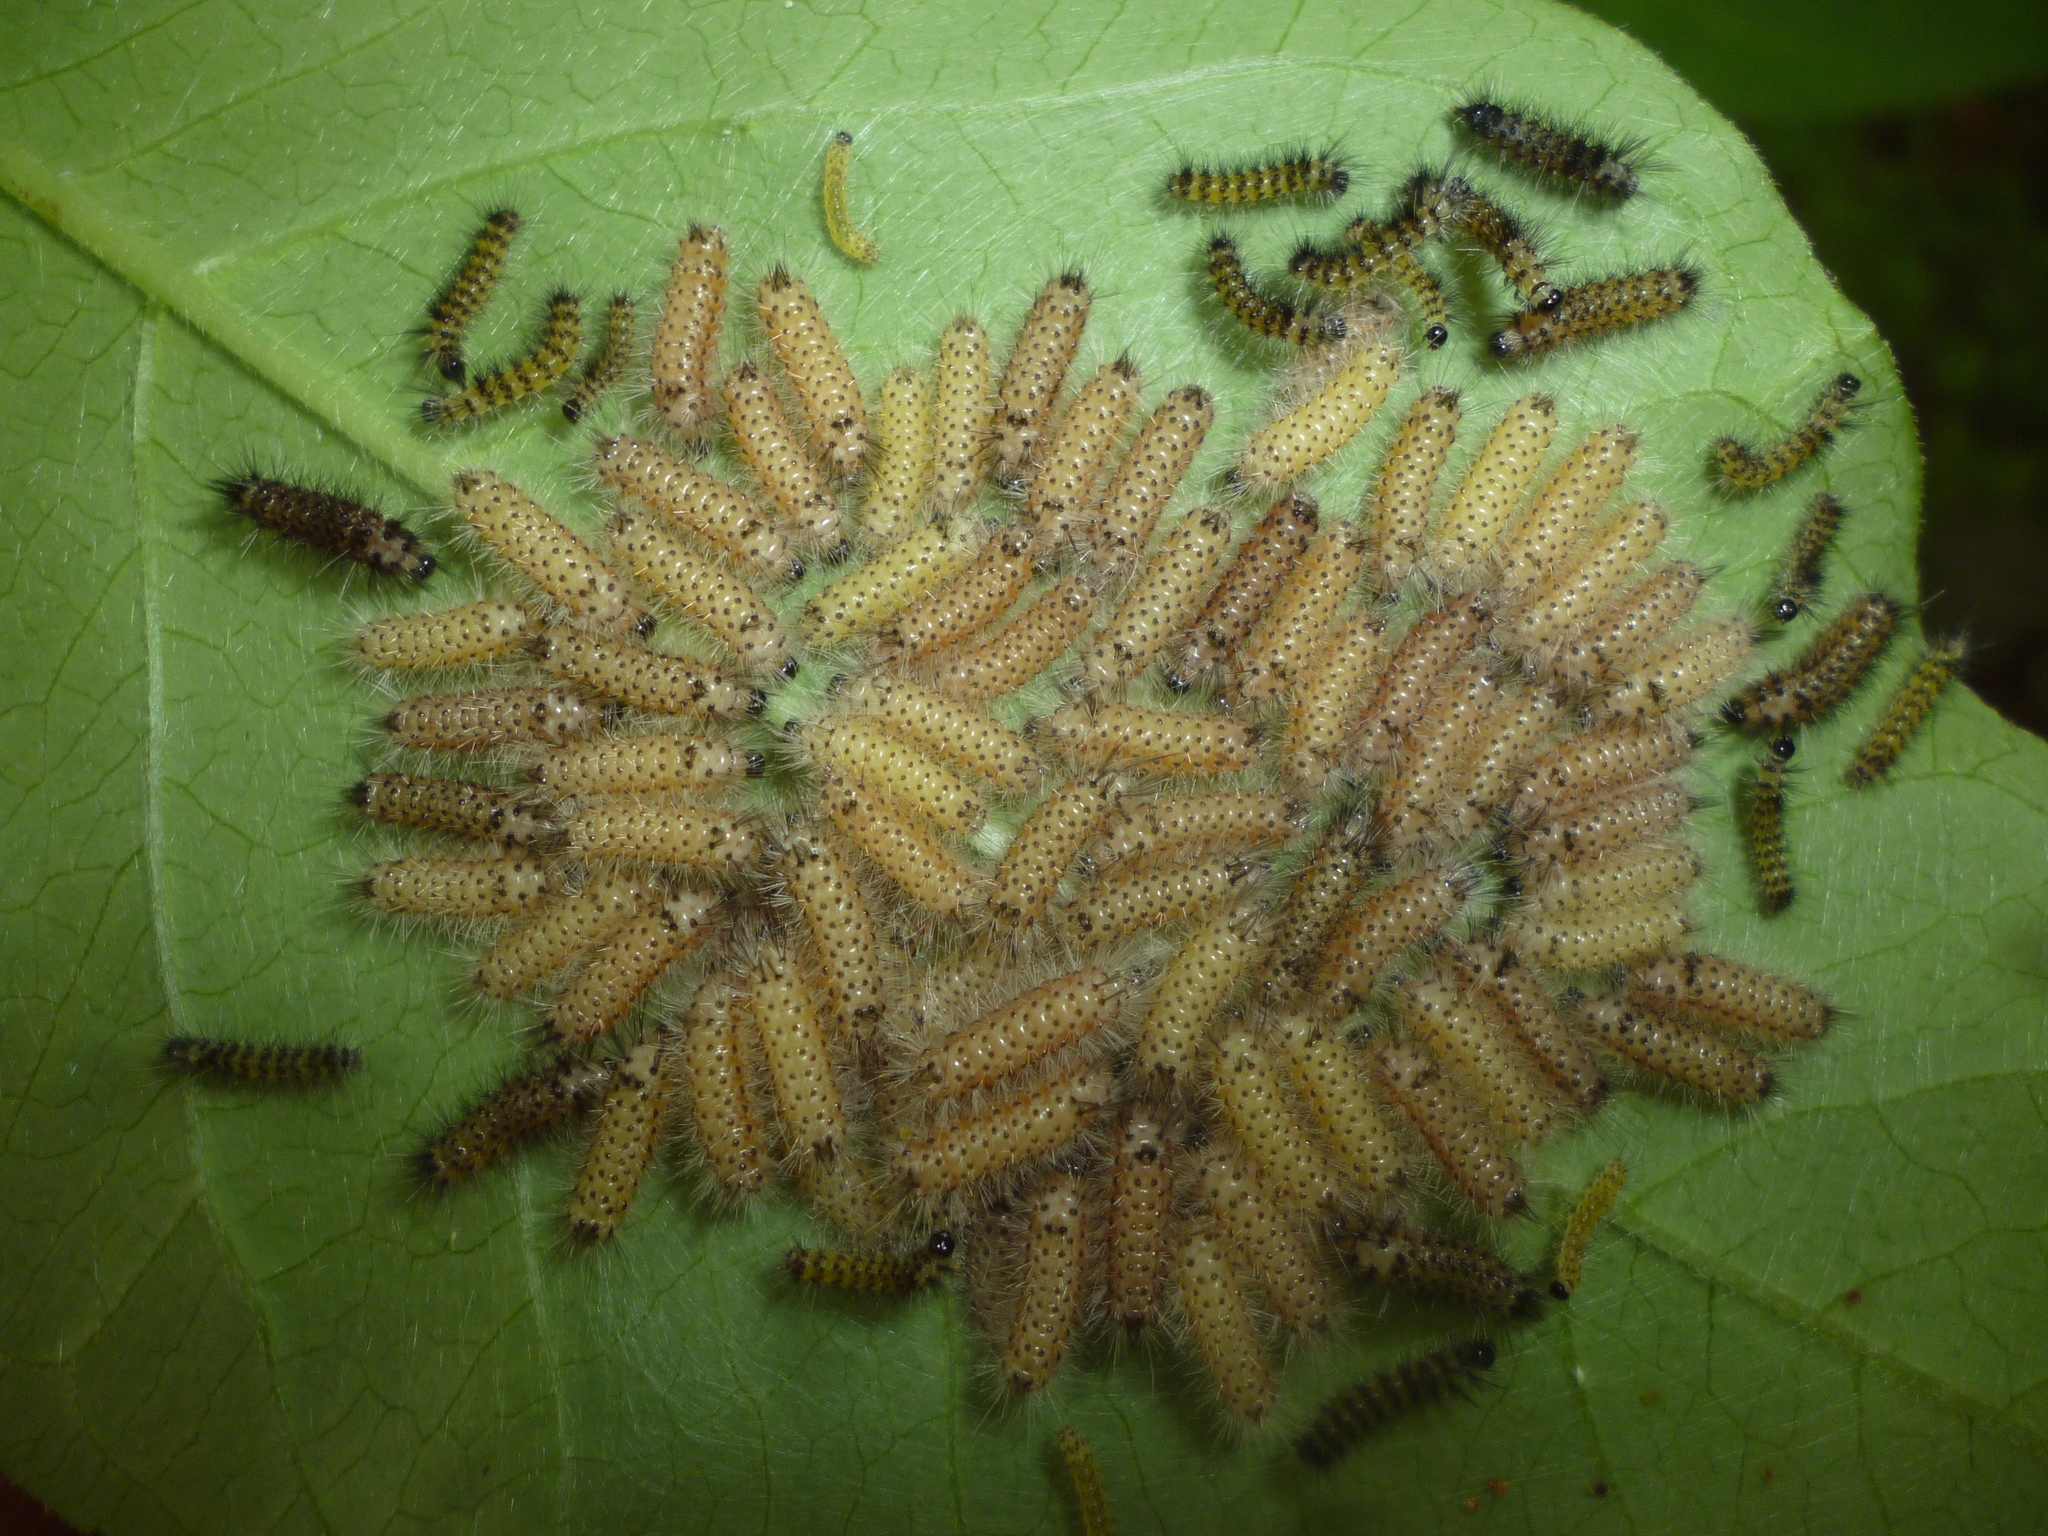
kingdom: Animalia
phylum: Arthropoda
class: Insecta
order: Lepidoptera
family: Erebidae
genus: Euchaetes
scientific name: Euchaetes egle
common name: Milkweed tussock moth
